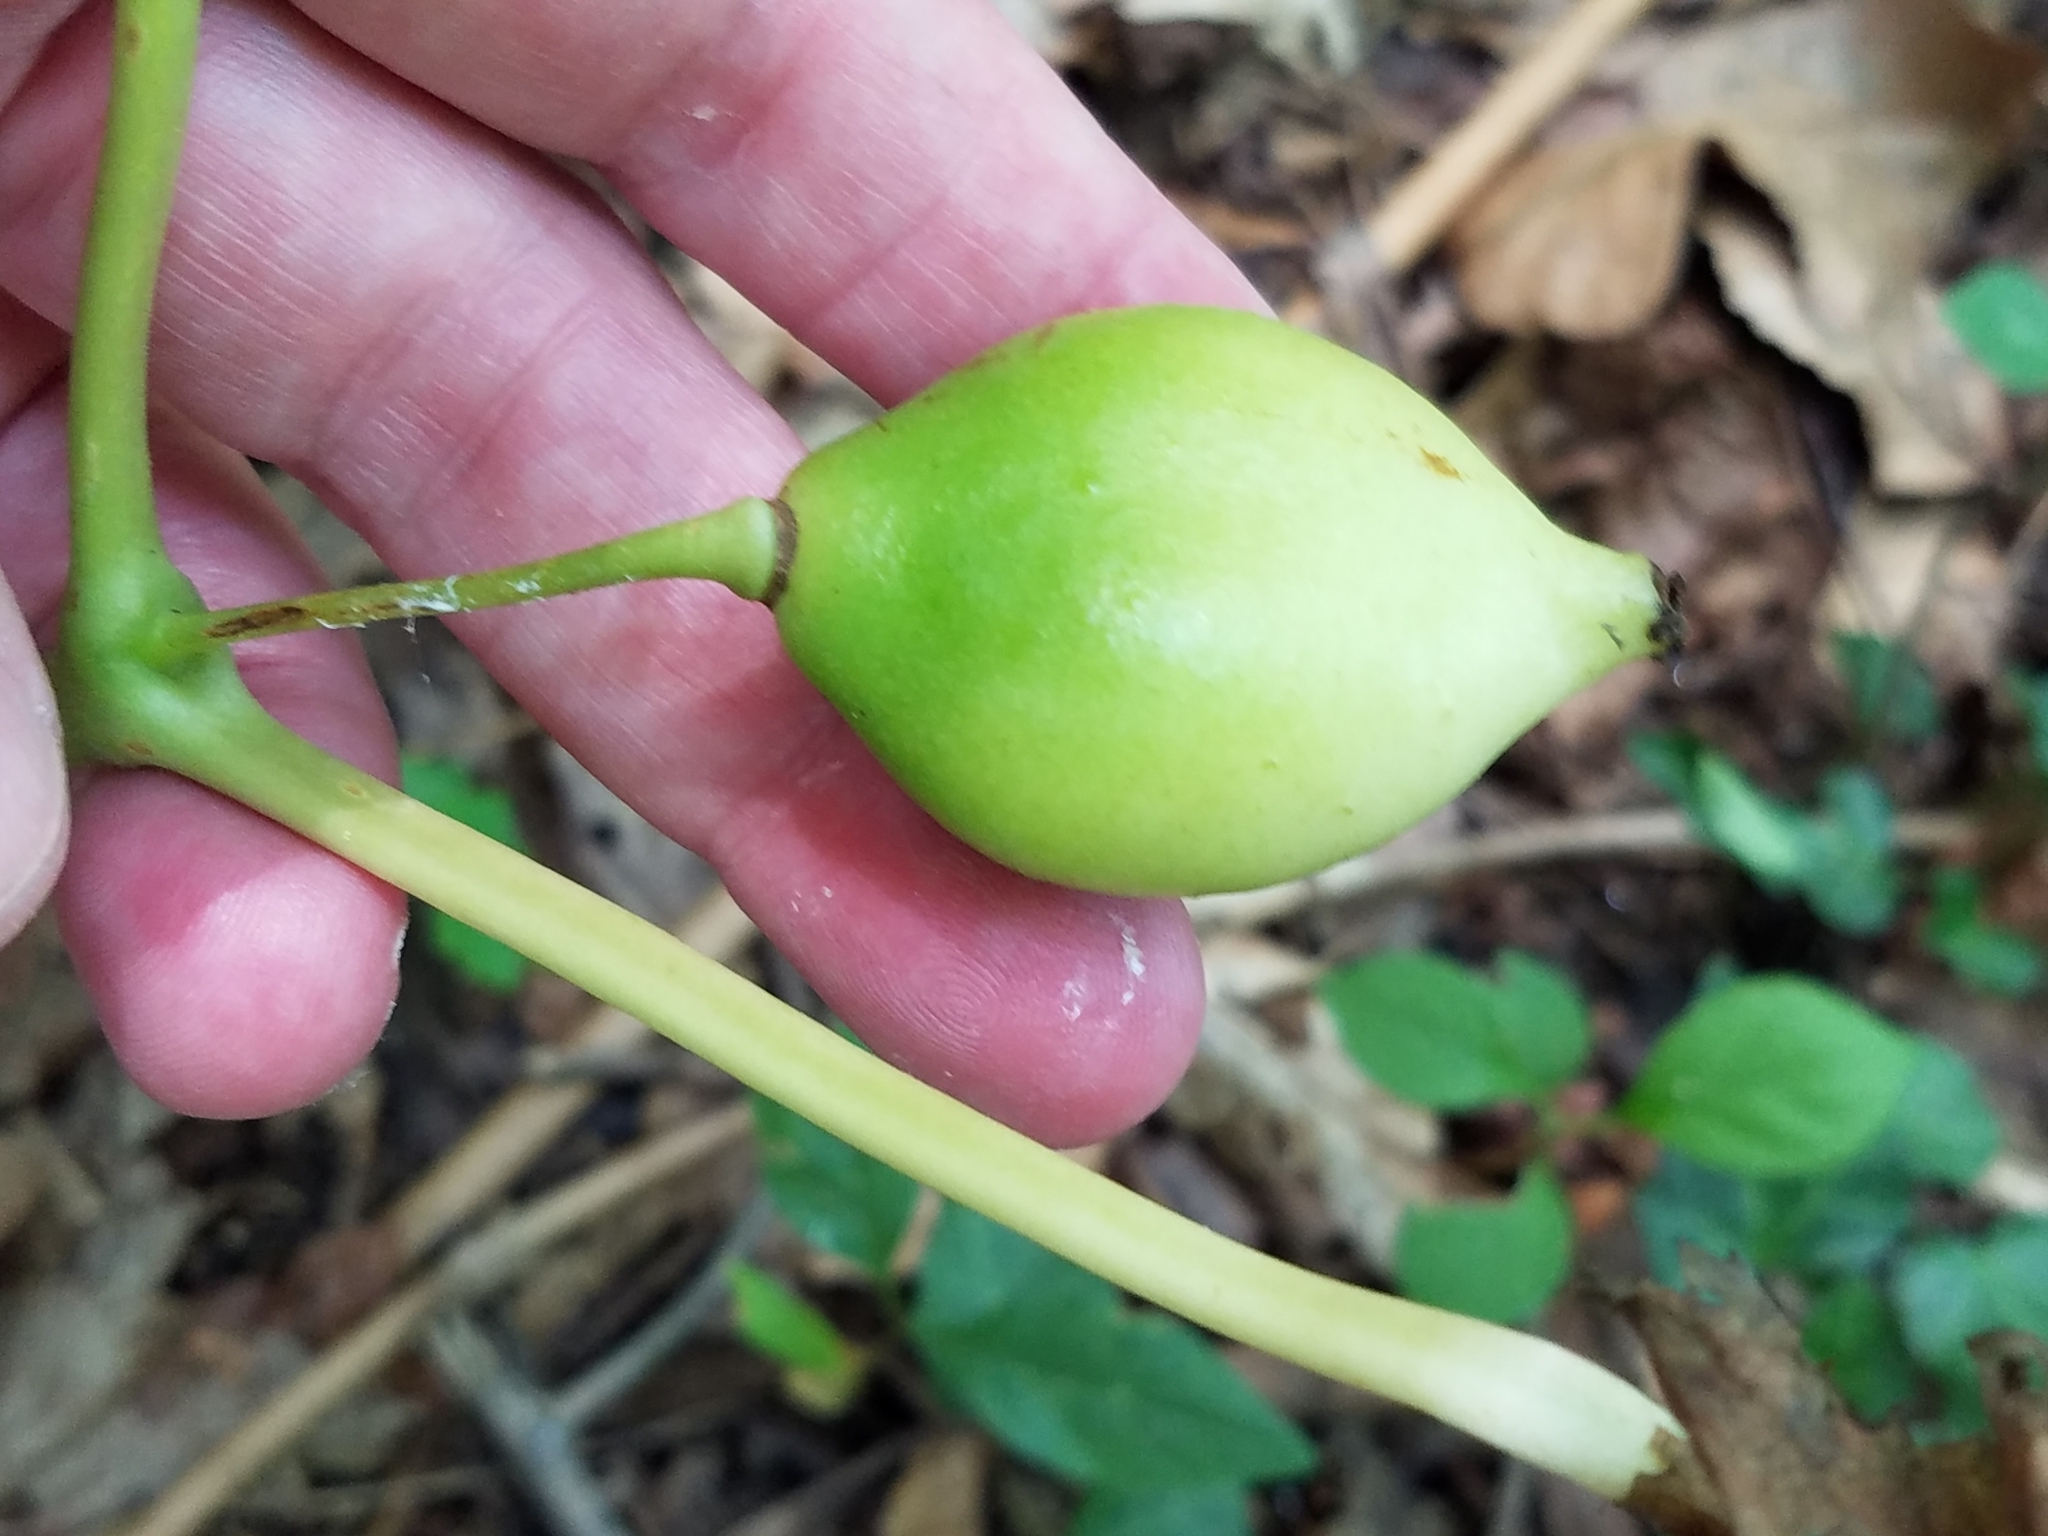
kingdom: Plantae
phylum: Tracheophyta
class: Magnoliopsida
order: Ranunculales
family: Berberidaceae
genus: Podophyllum
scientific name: Podophyllum peltatum
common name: Wild mandrake
